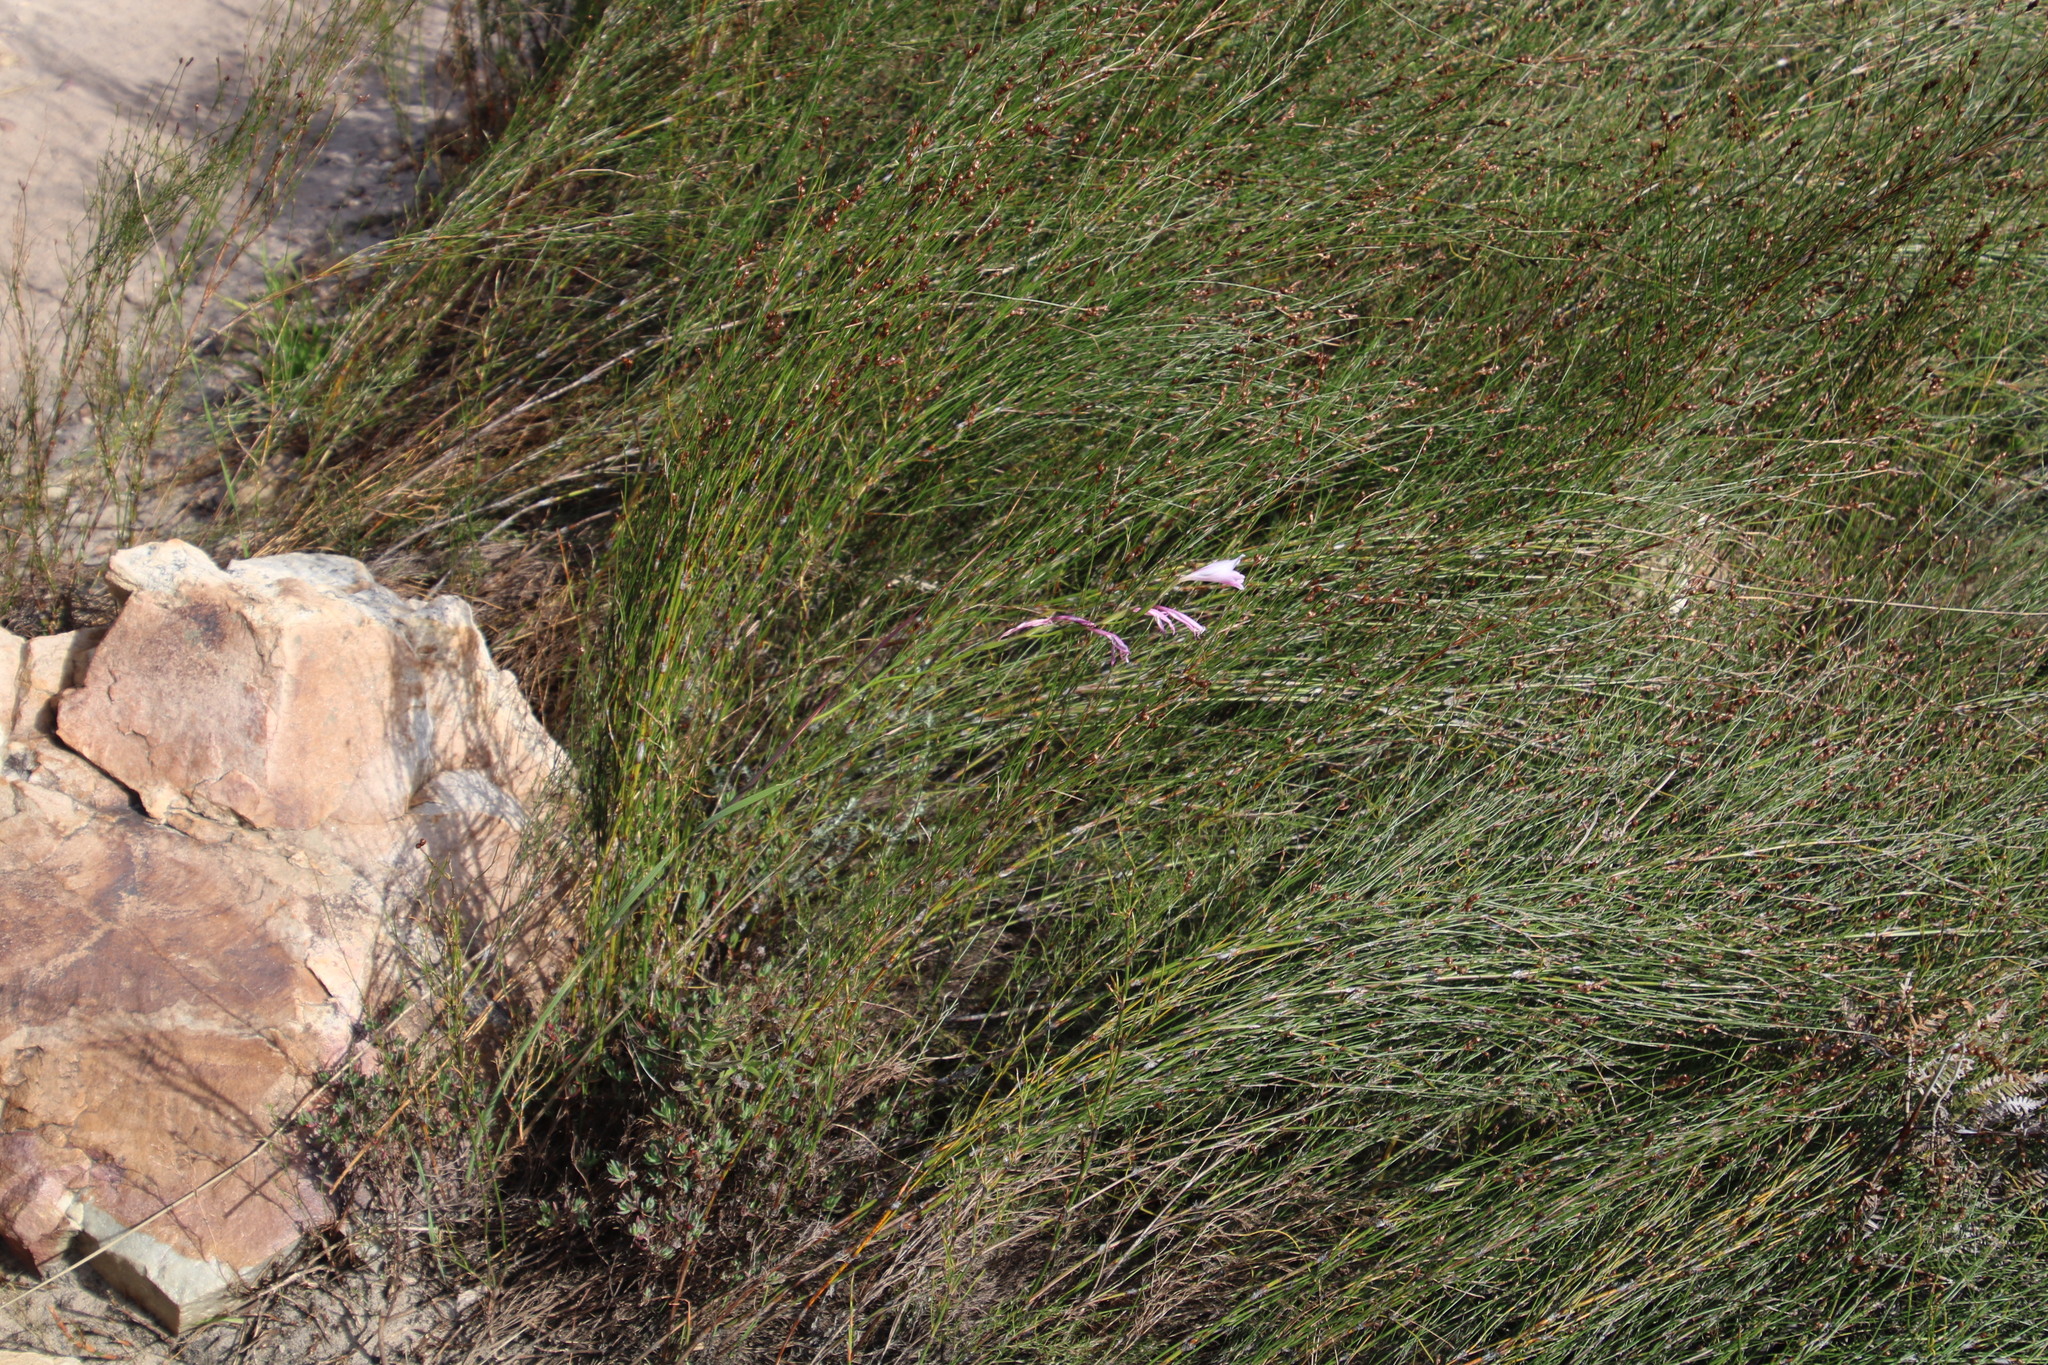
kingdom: Plantae
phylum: Tracheophyta
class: Liliopsida
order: Asparagales
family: Iridaceae
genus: Gladiolus
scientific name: Gladiolus hirsutus
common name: Small pink afrikaner
